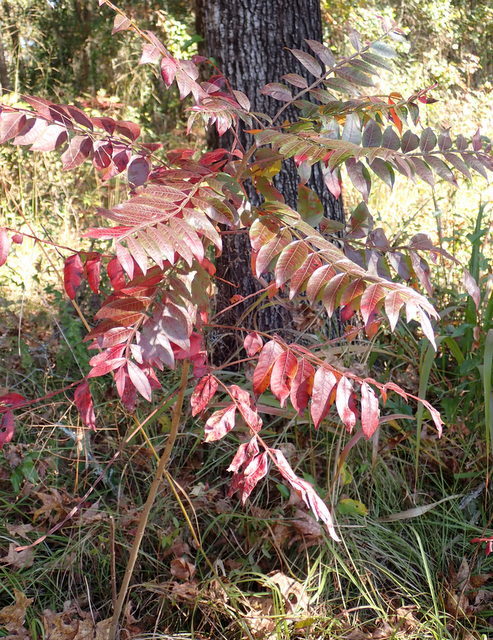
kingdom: Plantae
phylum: Tracheophyta
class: Magnoliopsida
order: Sapindales
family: Anacardiaceae
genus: Rhus
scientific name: Rhus copallina
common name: Shining sumac
